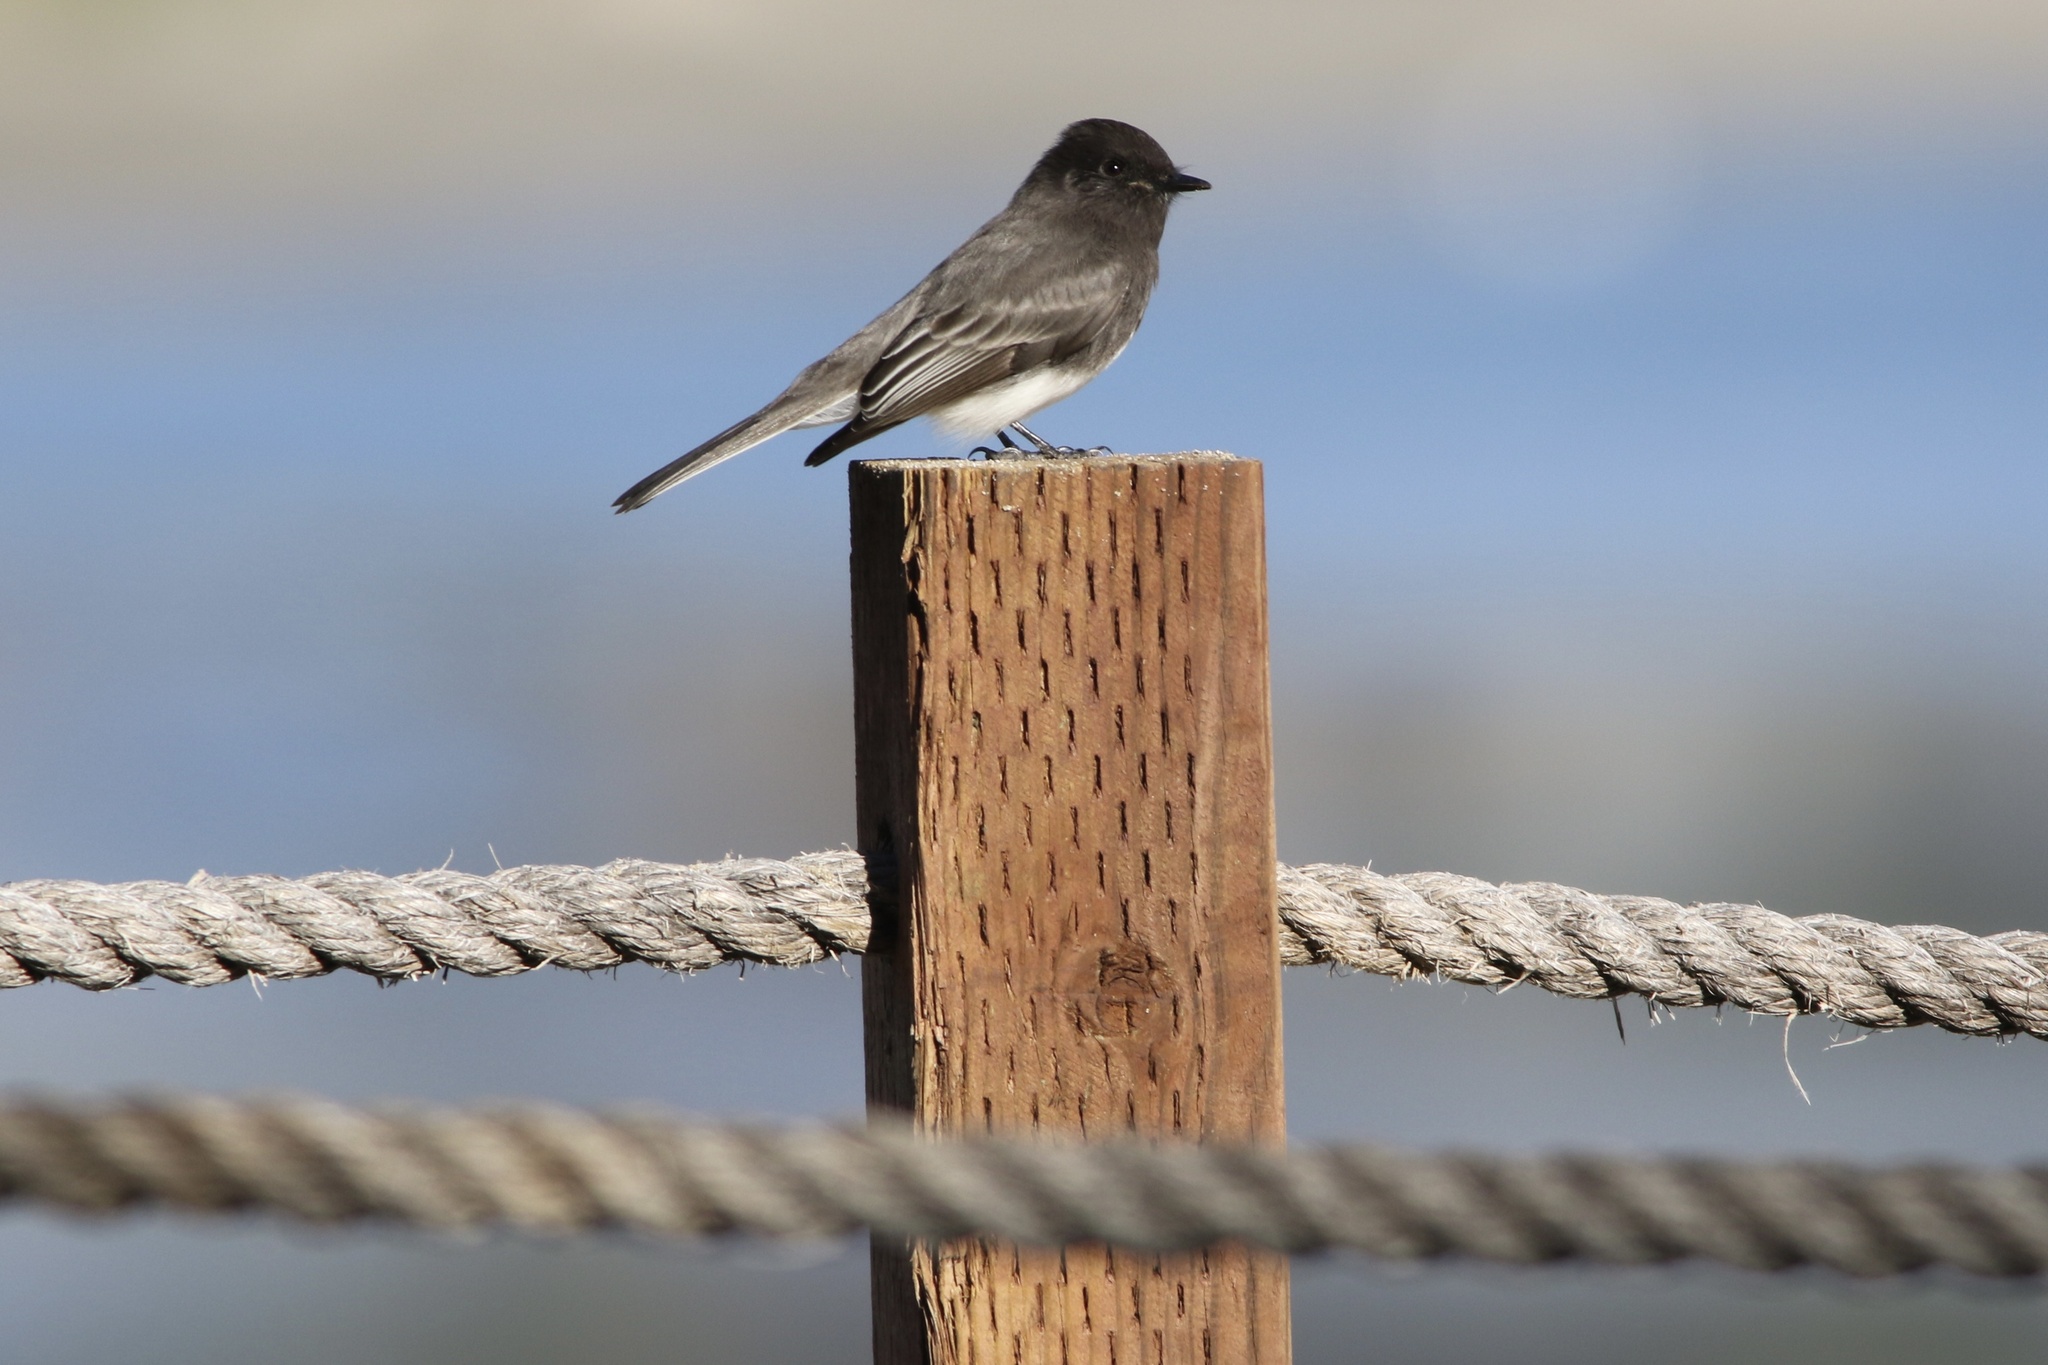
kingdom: Animalia
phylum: Chordata
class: Aves
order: Passeriformes
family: Tyrannidae
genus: Sayornis
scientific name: Sayornis nigricans
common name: Black phoebe
